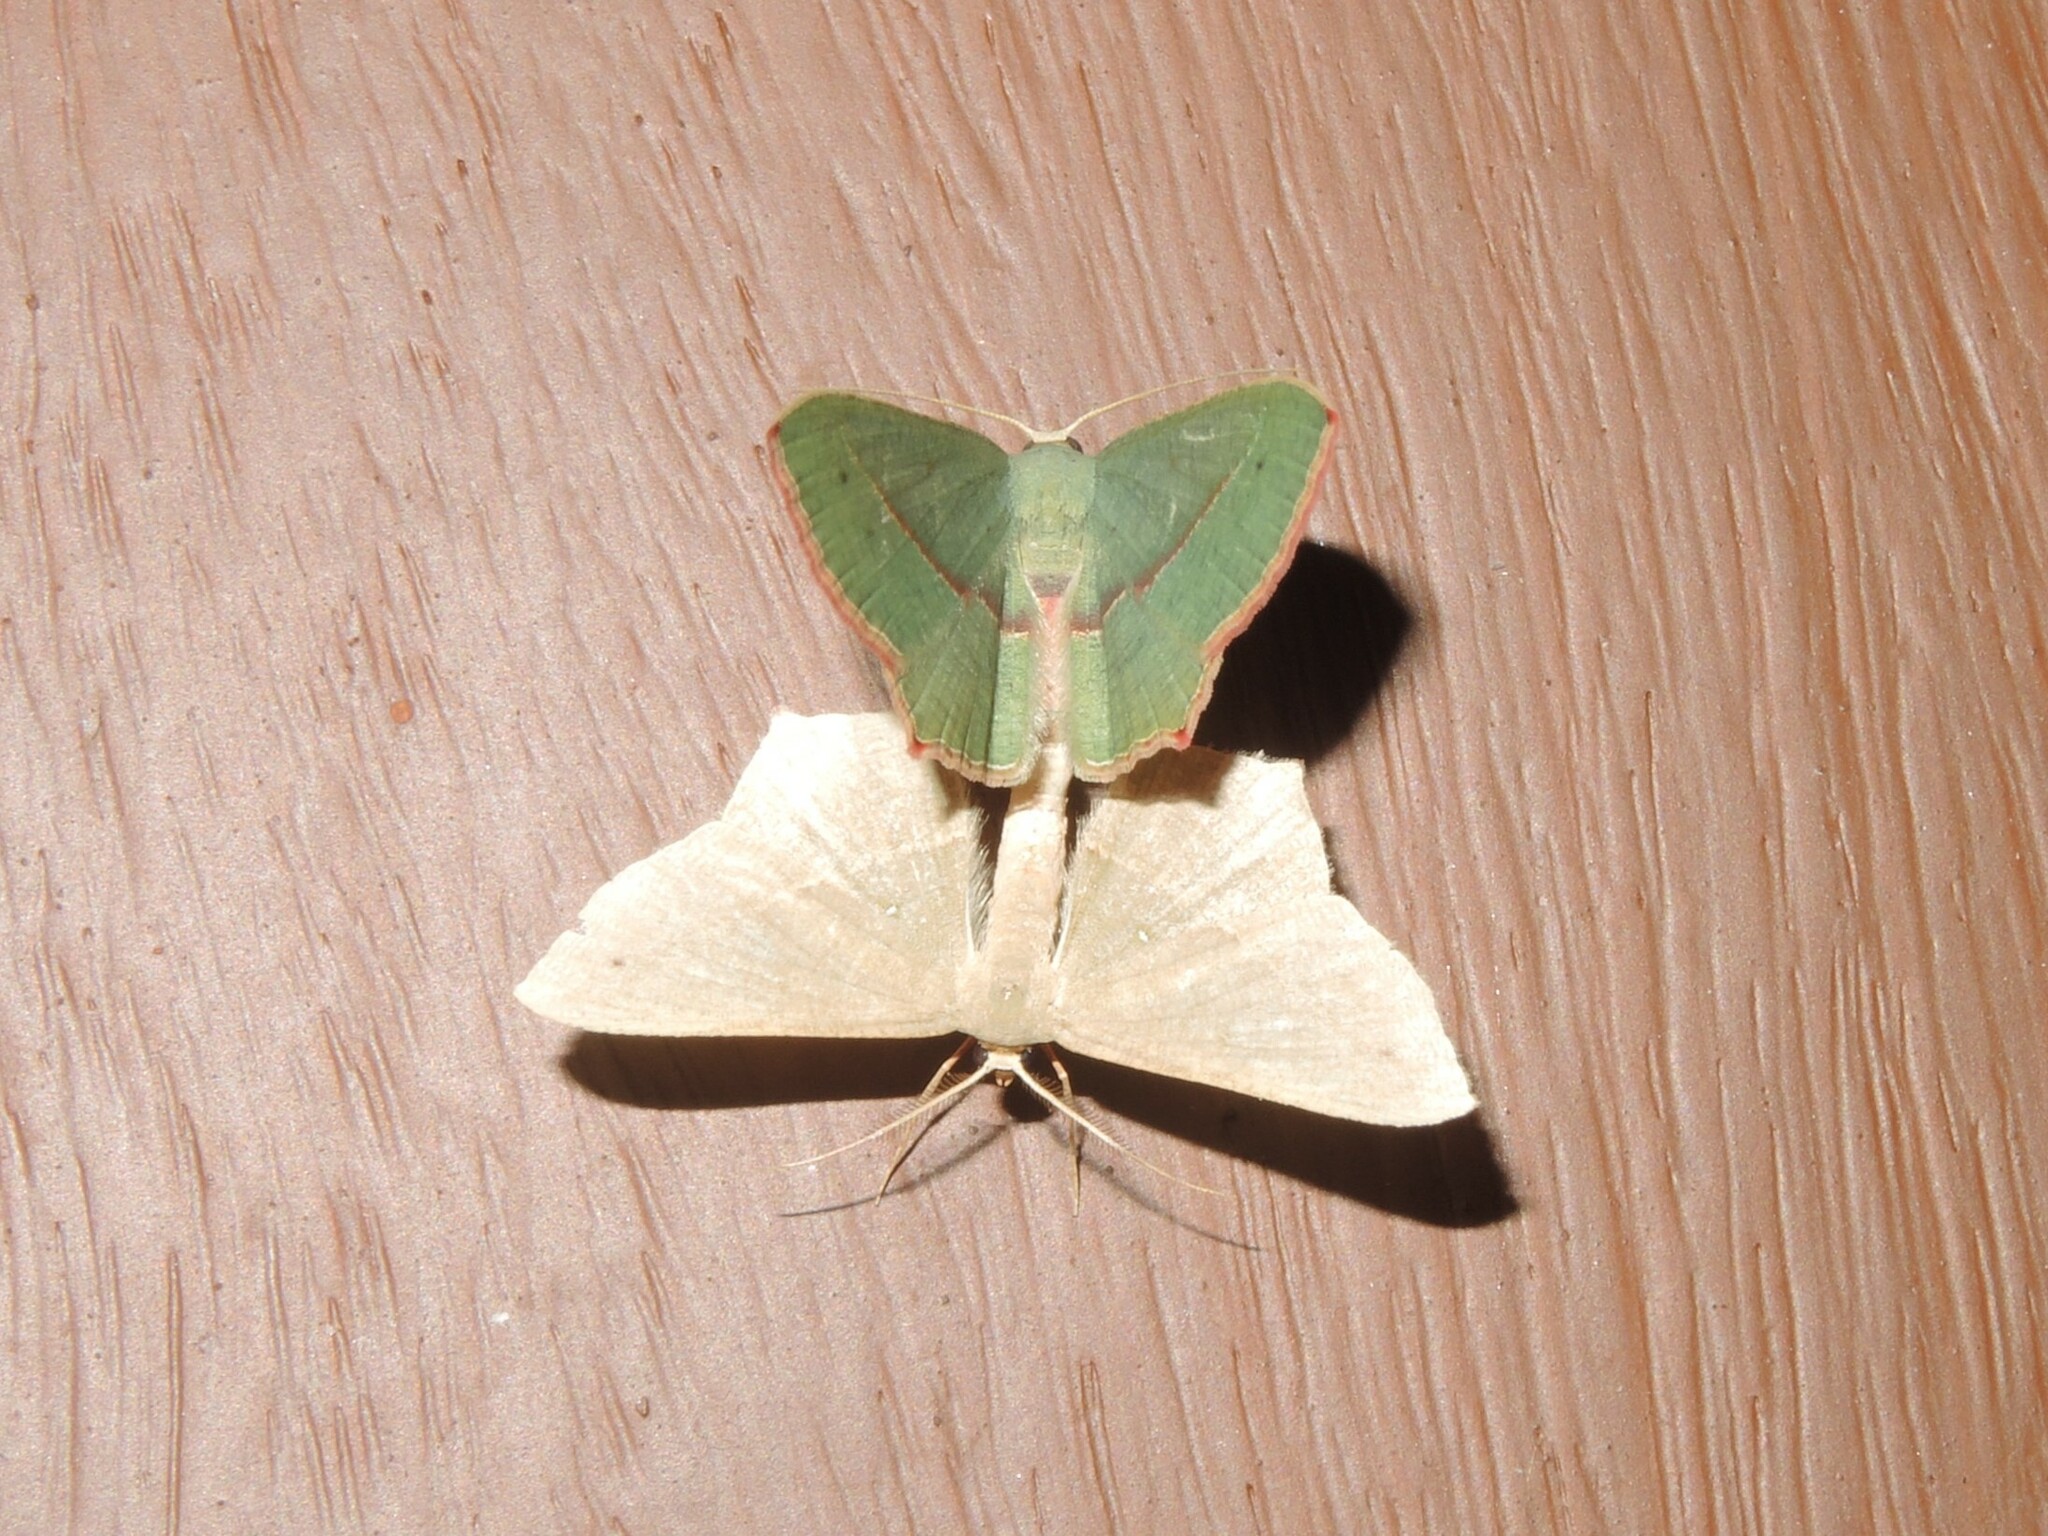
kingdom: Animalia
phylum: Arthropoda
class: Insecta
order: Lepidoptera
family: Geometridae
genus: Traminda
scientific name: Traminda mundissima
